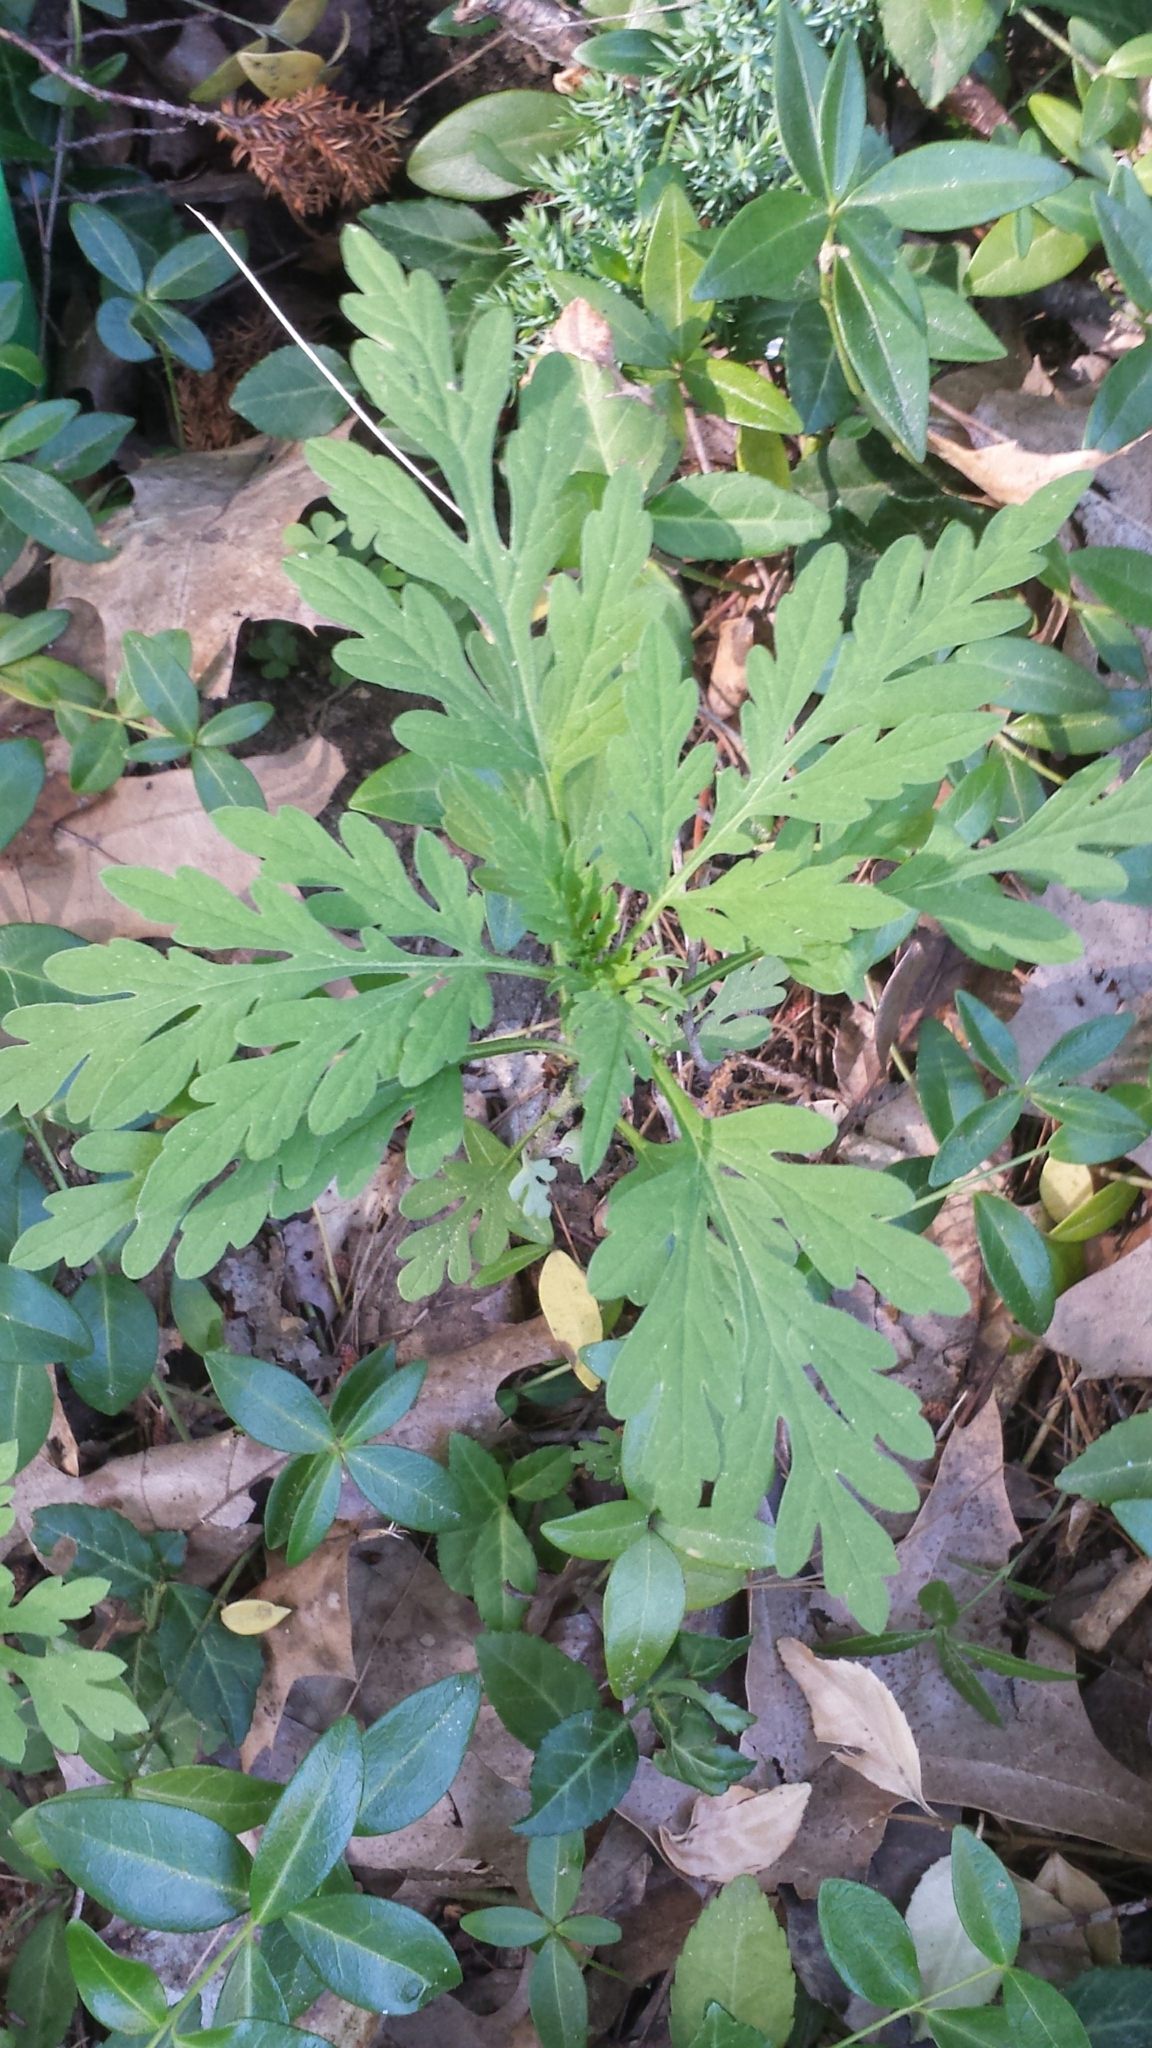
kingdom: Plantae
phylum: Tracheophyta
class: Magnoliopsida
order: Asterales
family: Asteraceae
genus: Ambrosia
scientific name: Ambrosia artemisiifolia
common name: Annual ragweed
